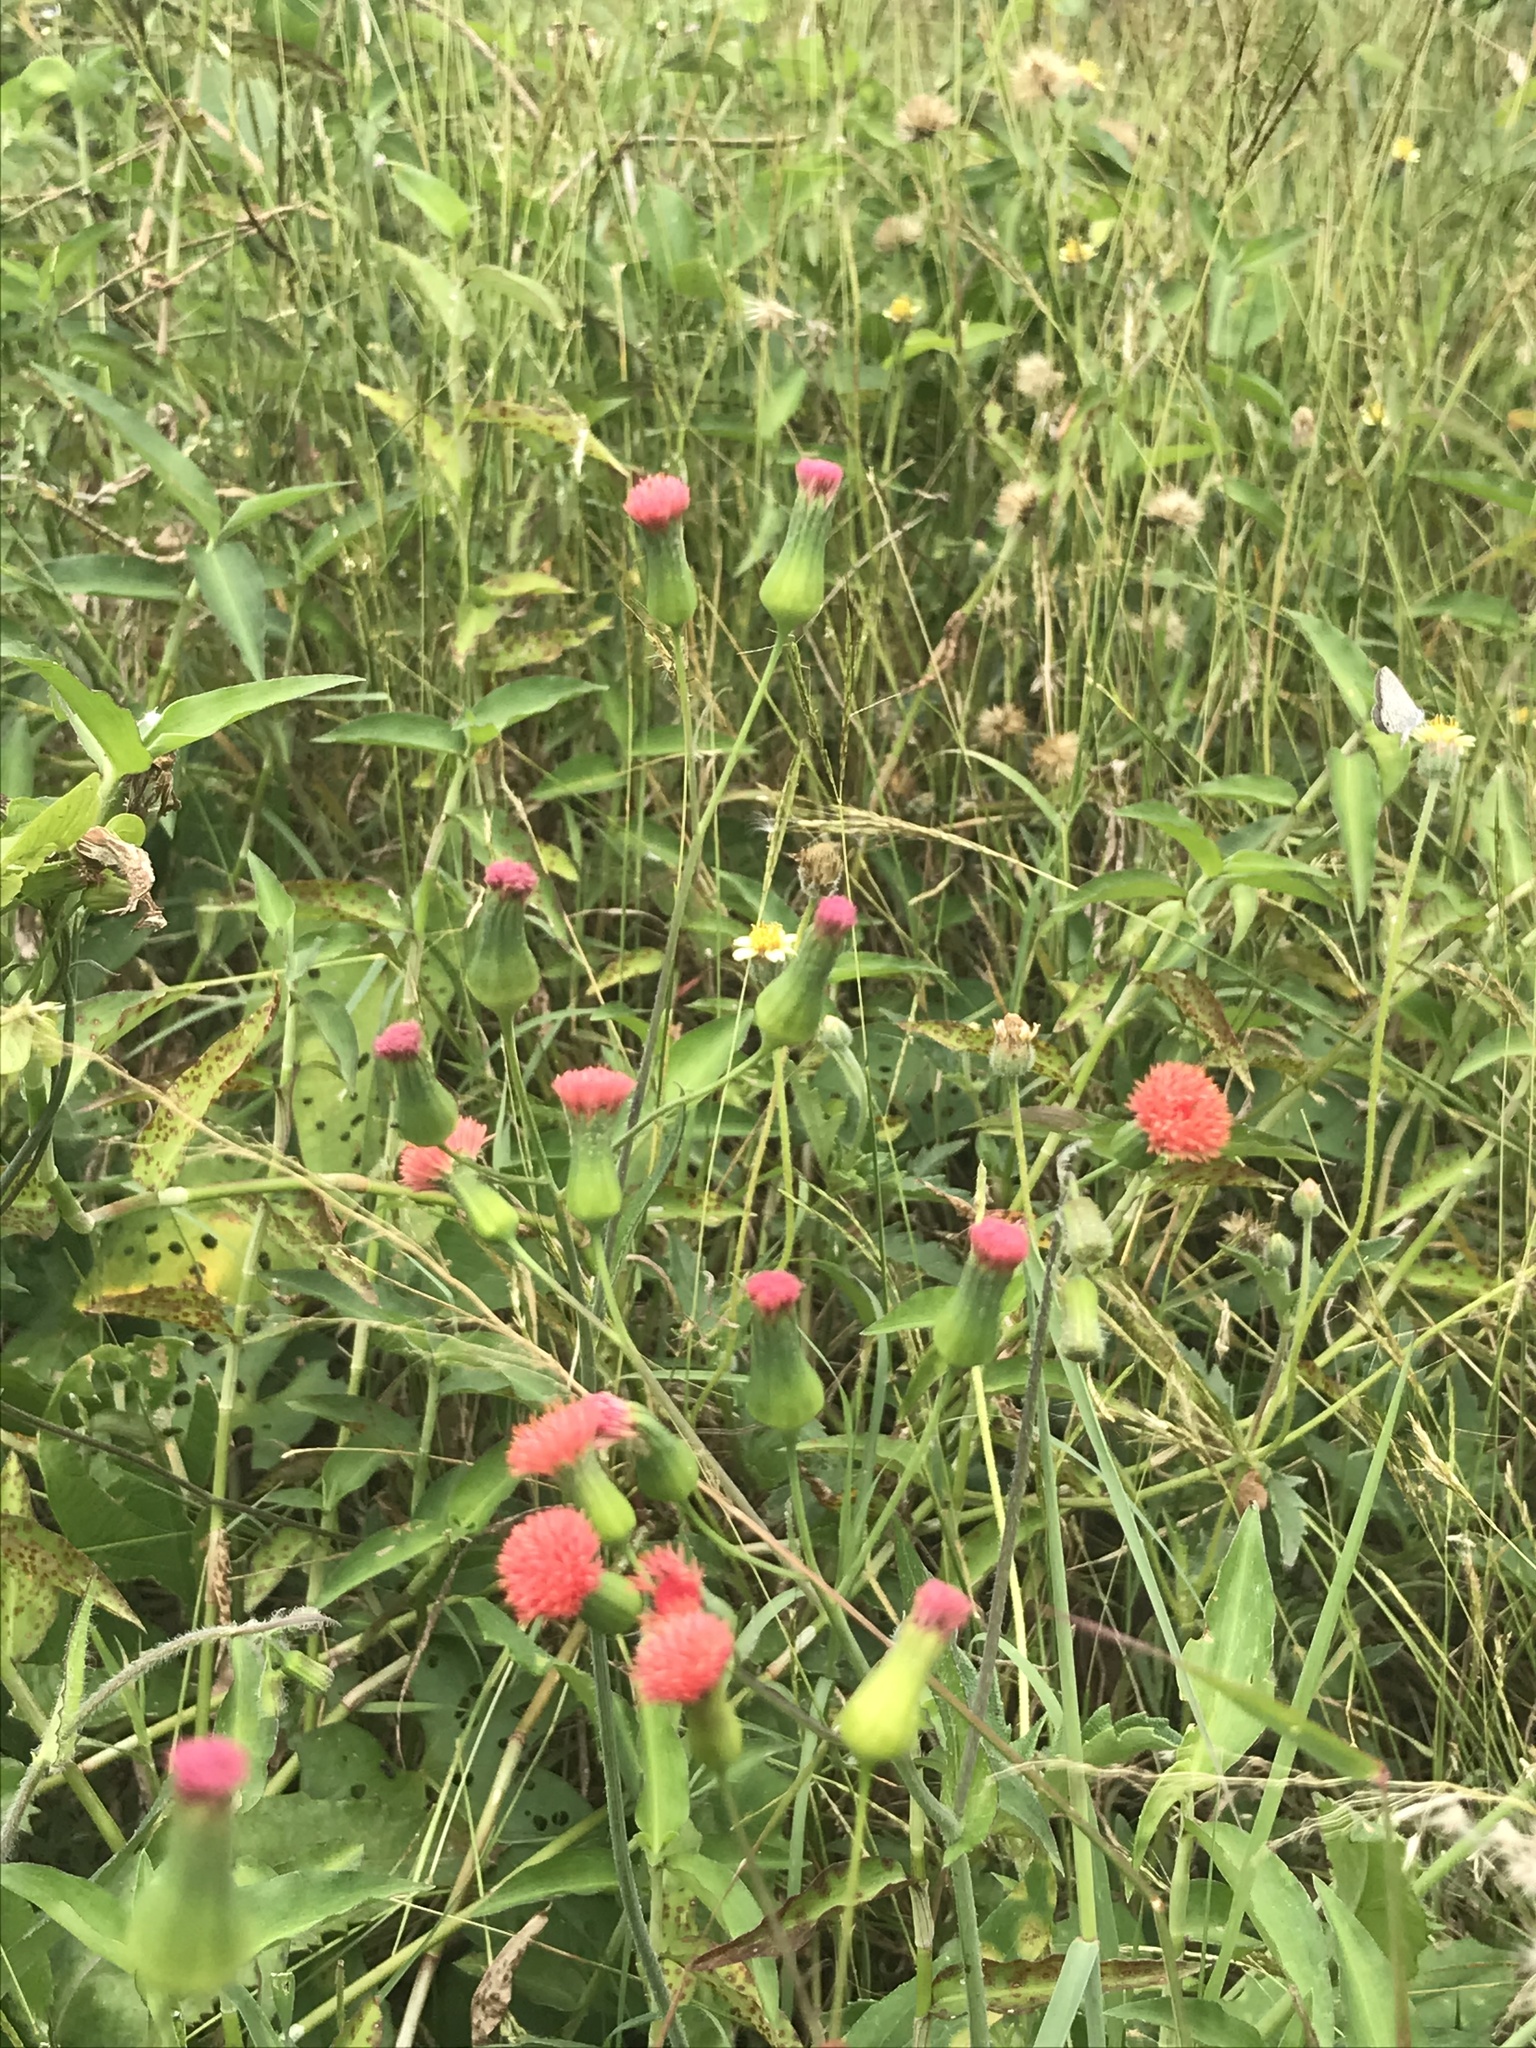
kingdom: Plantae
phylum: Tracheophyta
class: Magnoliopsida
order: Asterales
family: Asteraceae
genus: Emilia
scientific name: Emilia fosbergii
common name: Florida tasselflower
